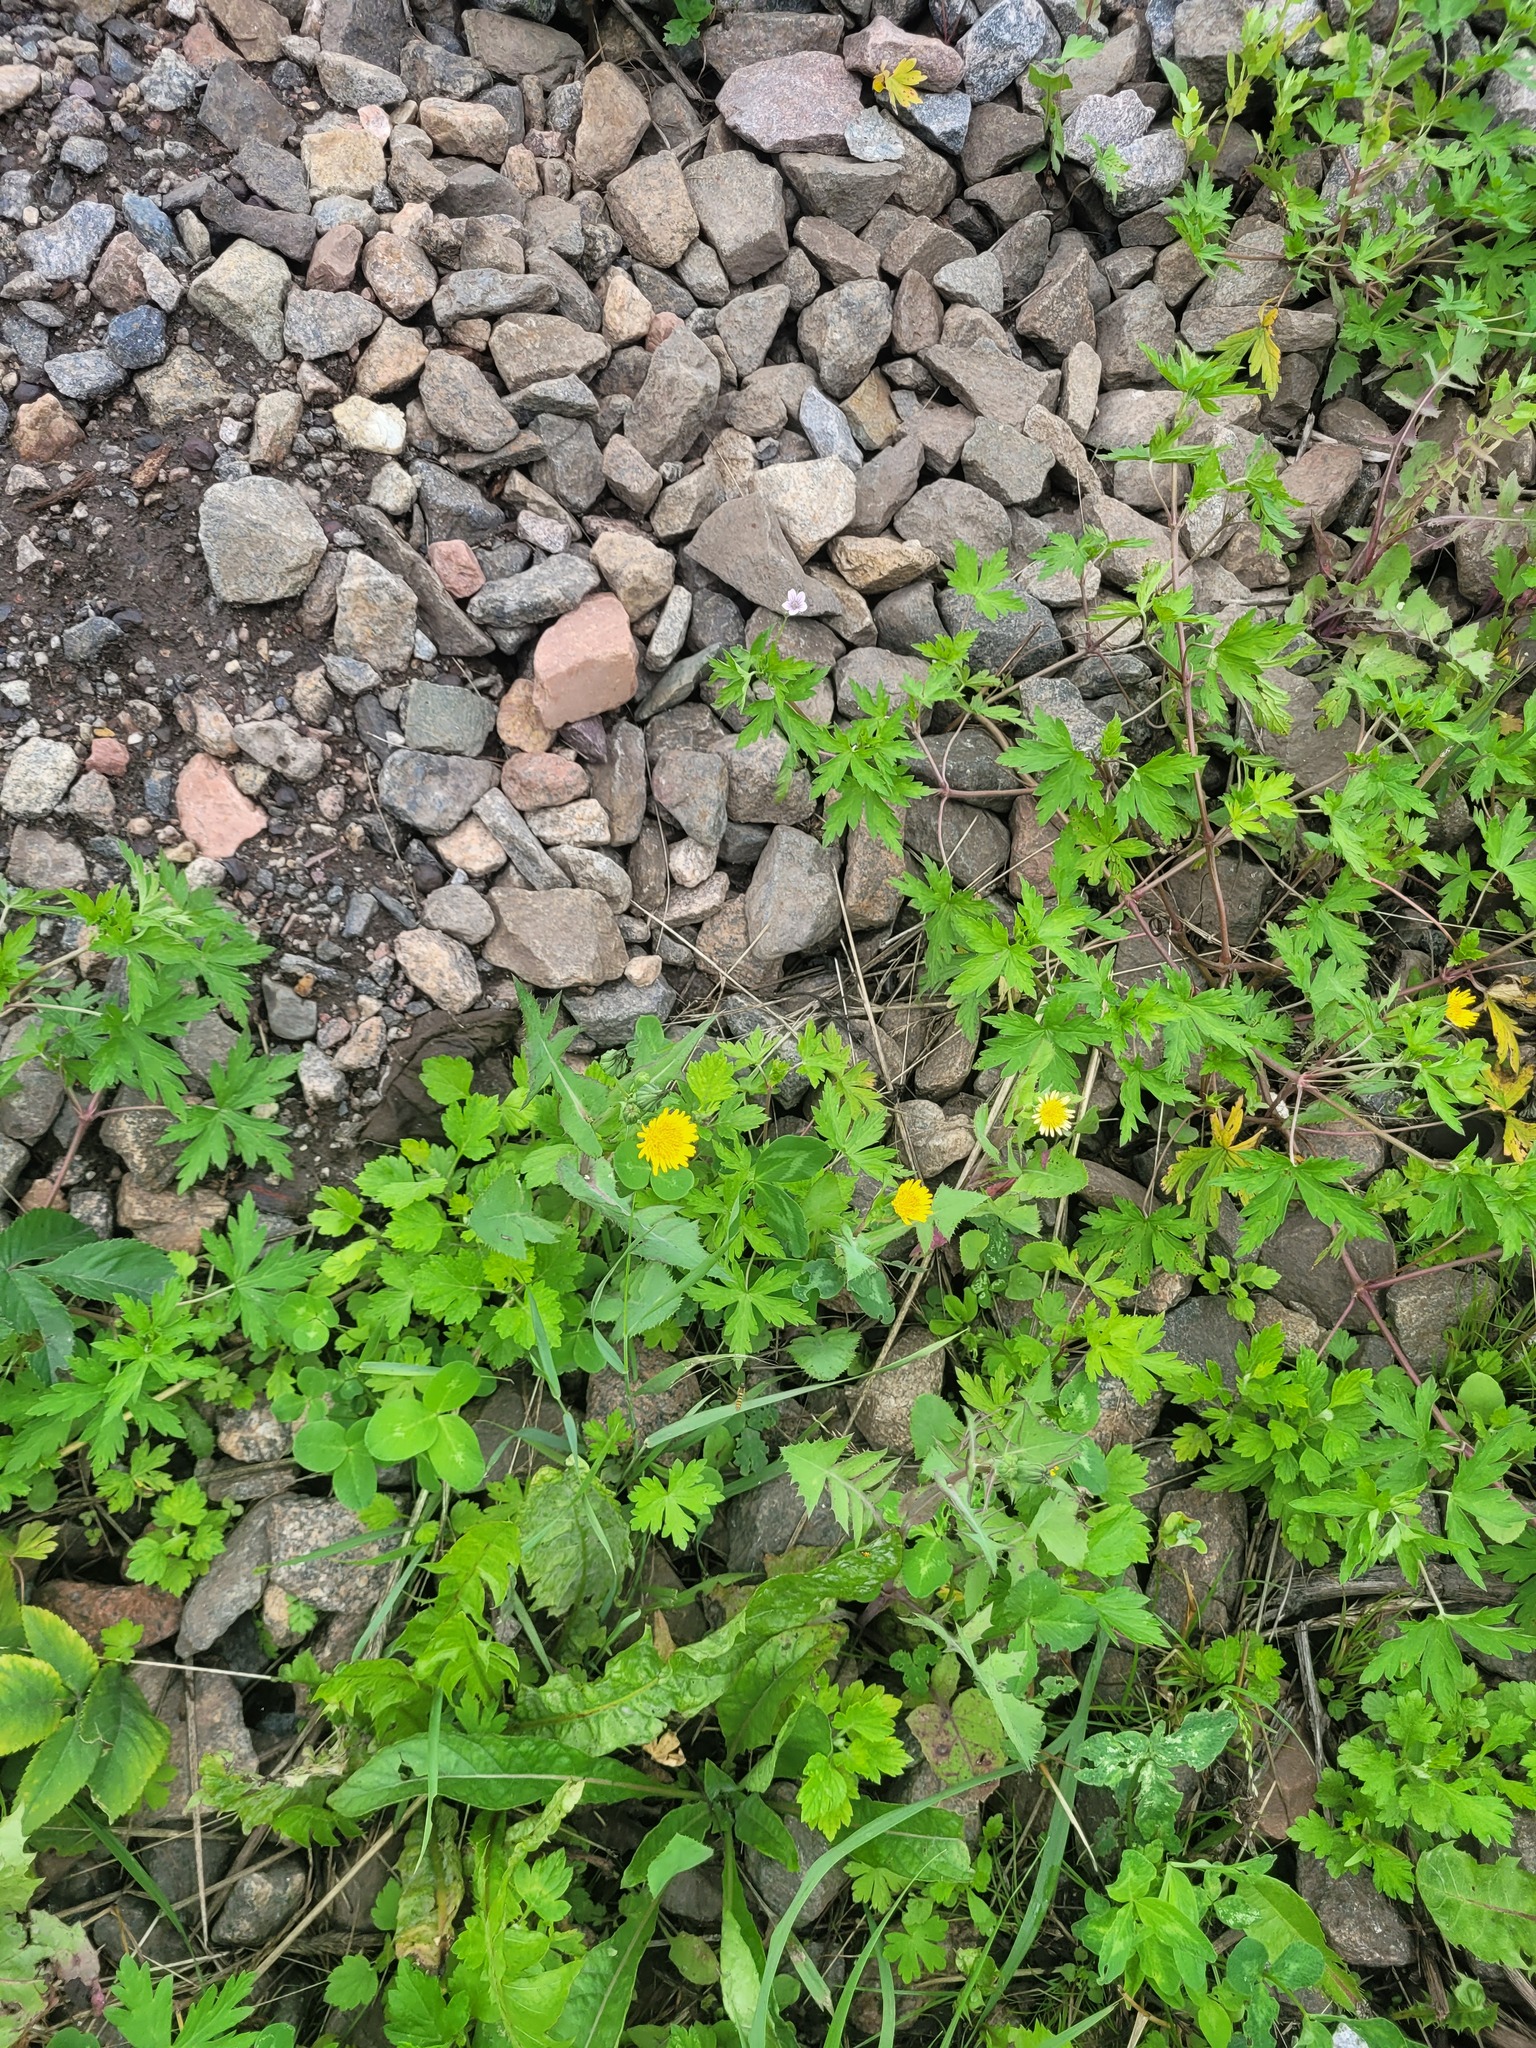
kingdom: Plantae
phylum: Tracheophyta
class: Magnoliopsida
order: Asterales
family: Asteraceae
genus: Sonchus
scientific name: Sonchus oleraceus
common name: Common sowthistle
